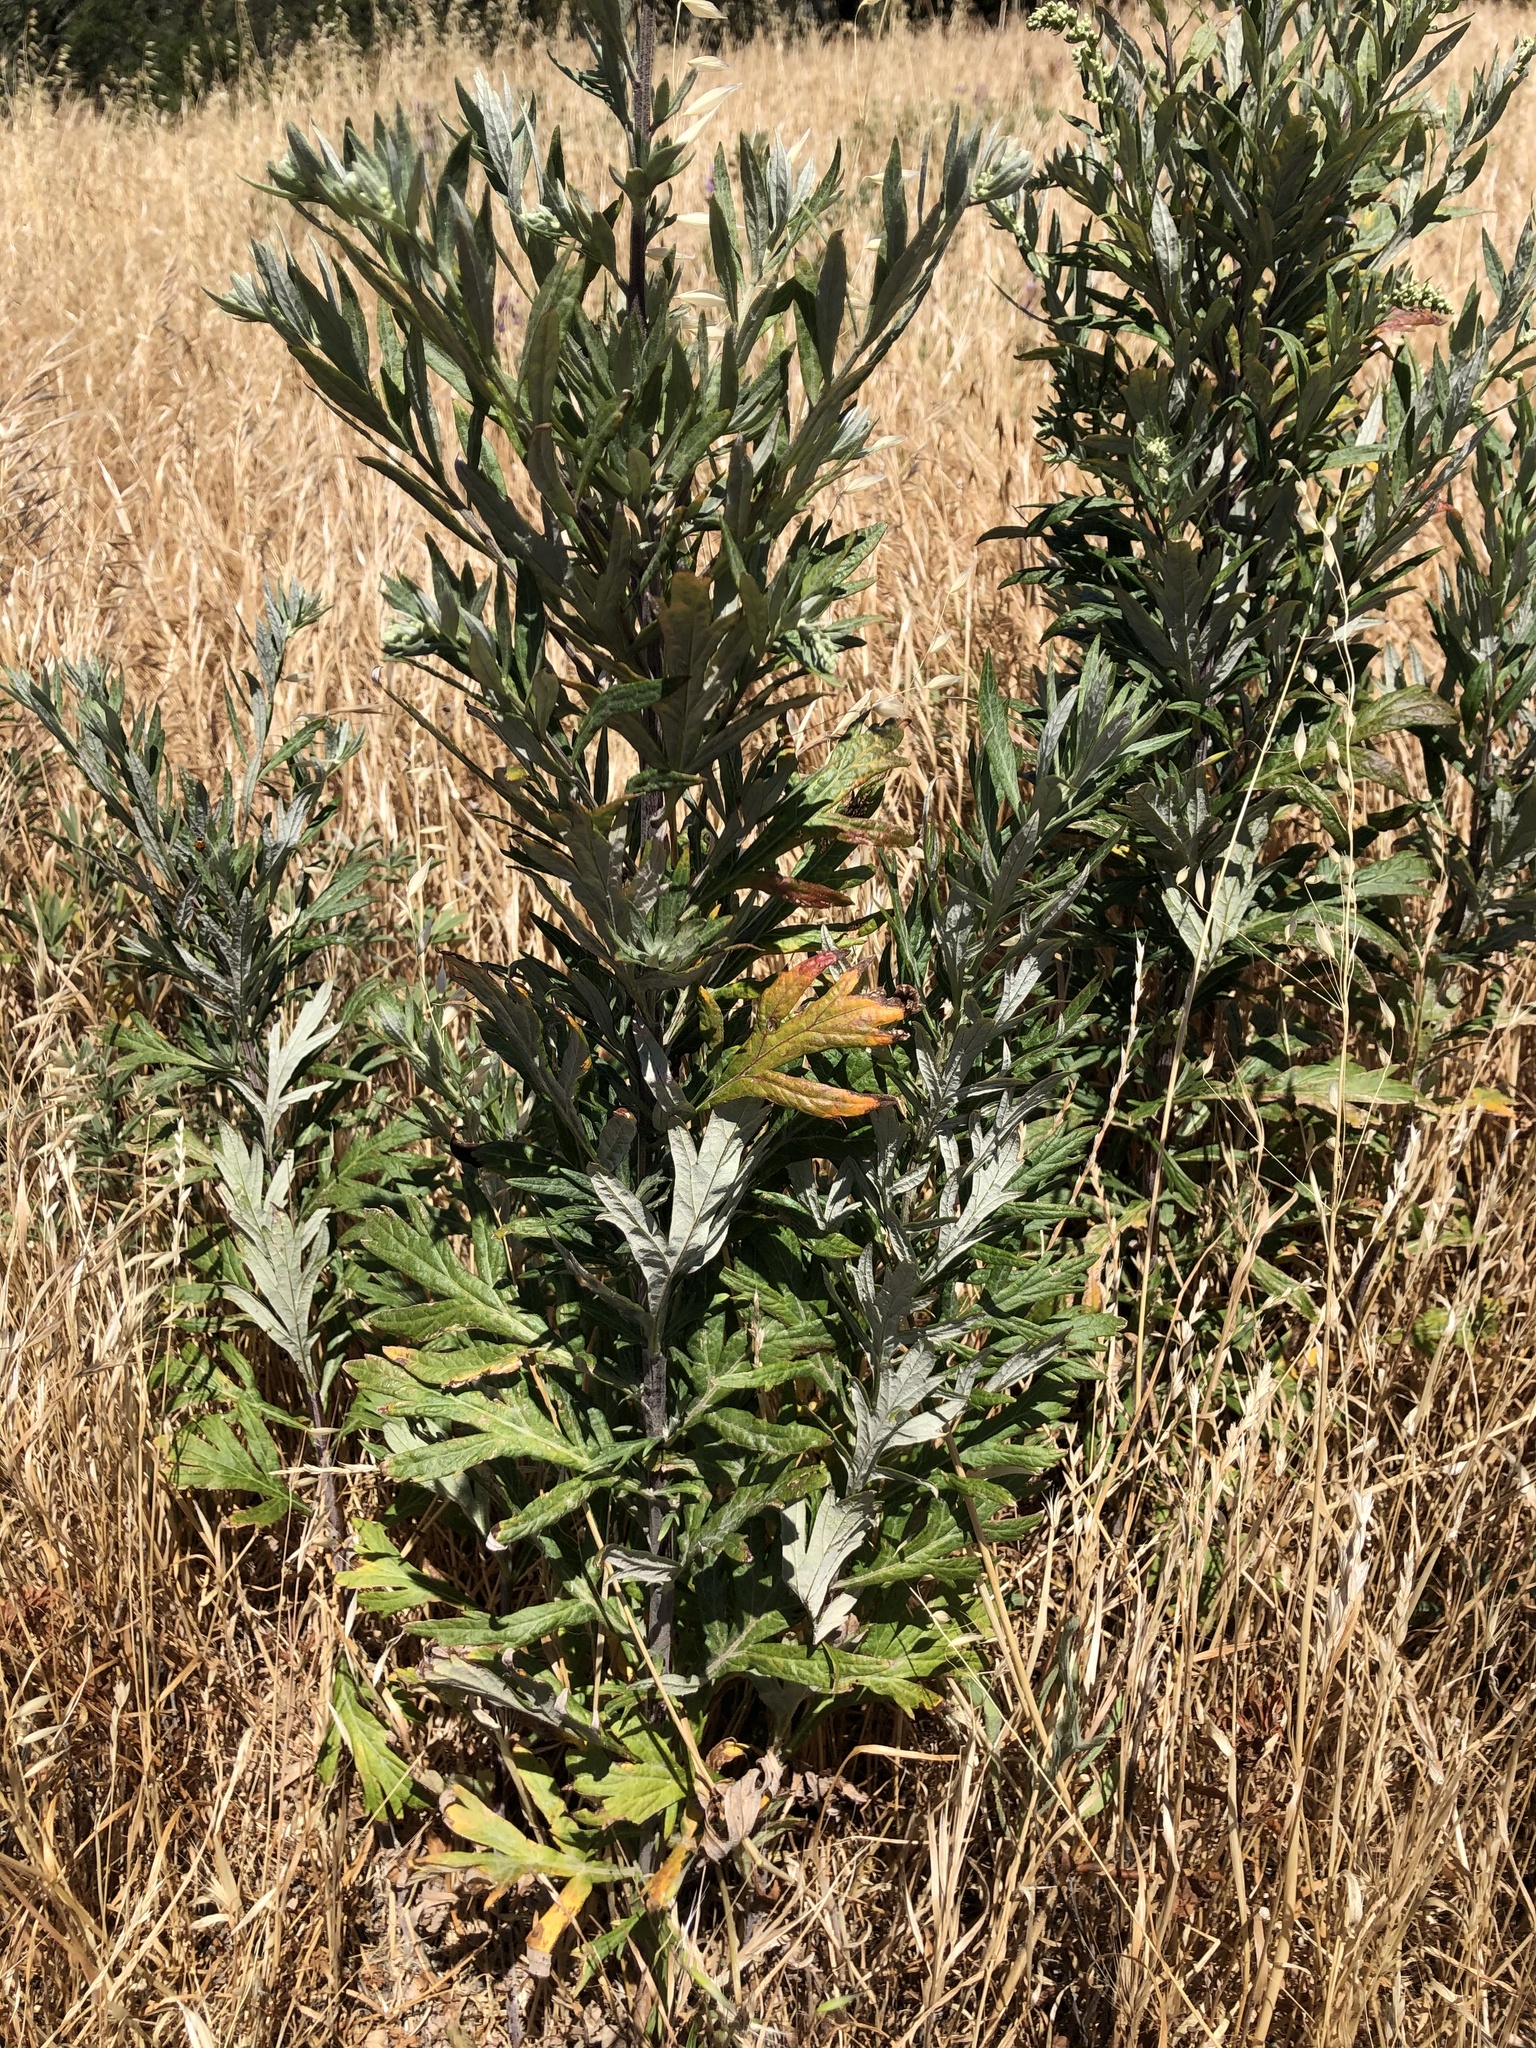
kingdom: Plantae
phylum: Tracheophyta
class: Magnoliopsida
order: Asterales
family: Asteraceae
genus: Artemisia
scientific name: Artemisia douglasiana
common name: Northwest mugwort
